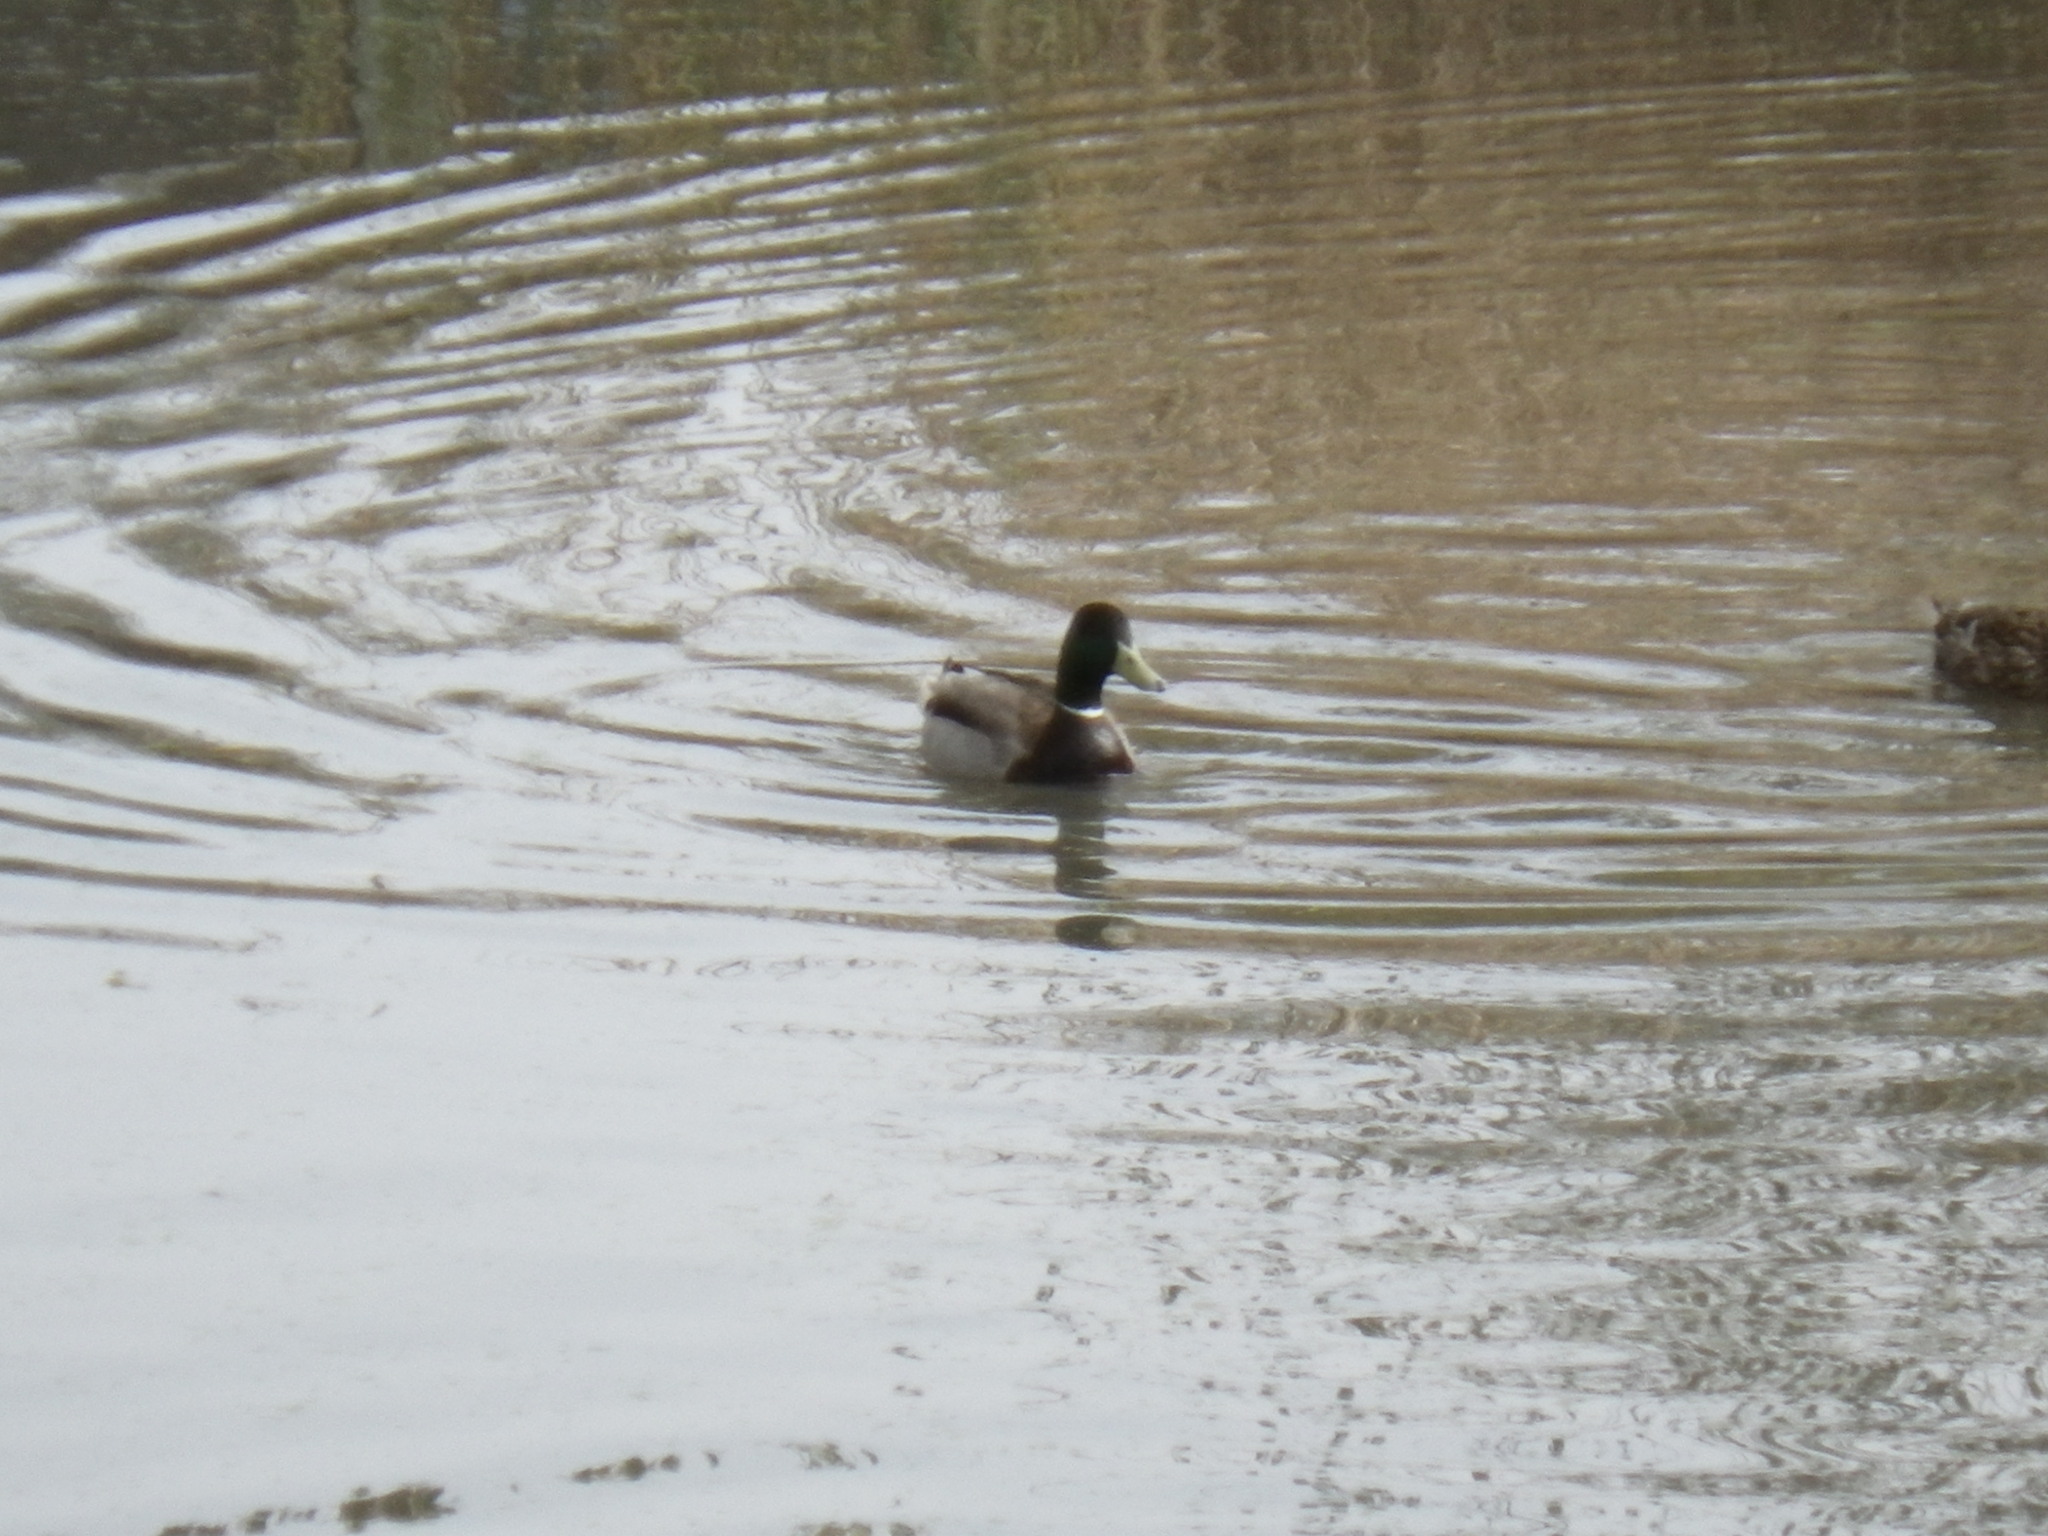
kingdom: Animalia
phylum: Chordata
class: Aves
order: Anseriformes
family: Anatidae
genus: Anas
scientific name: Anas platyrhynchos
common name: Mallard
